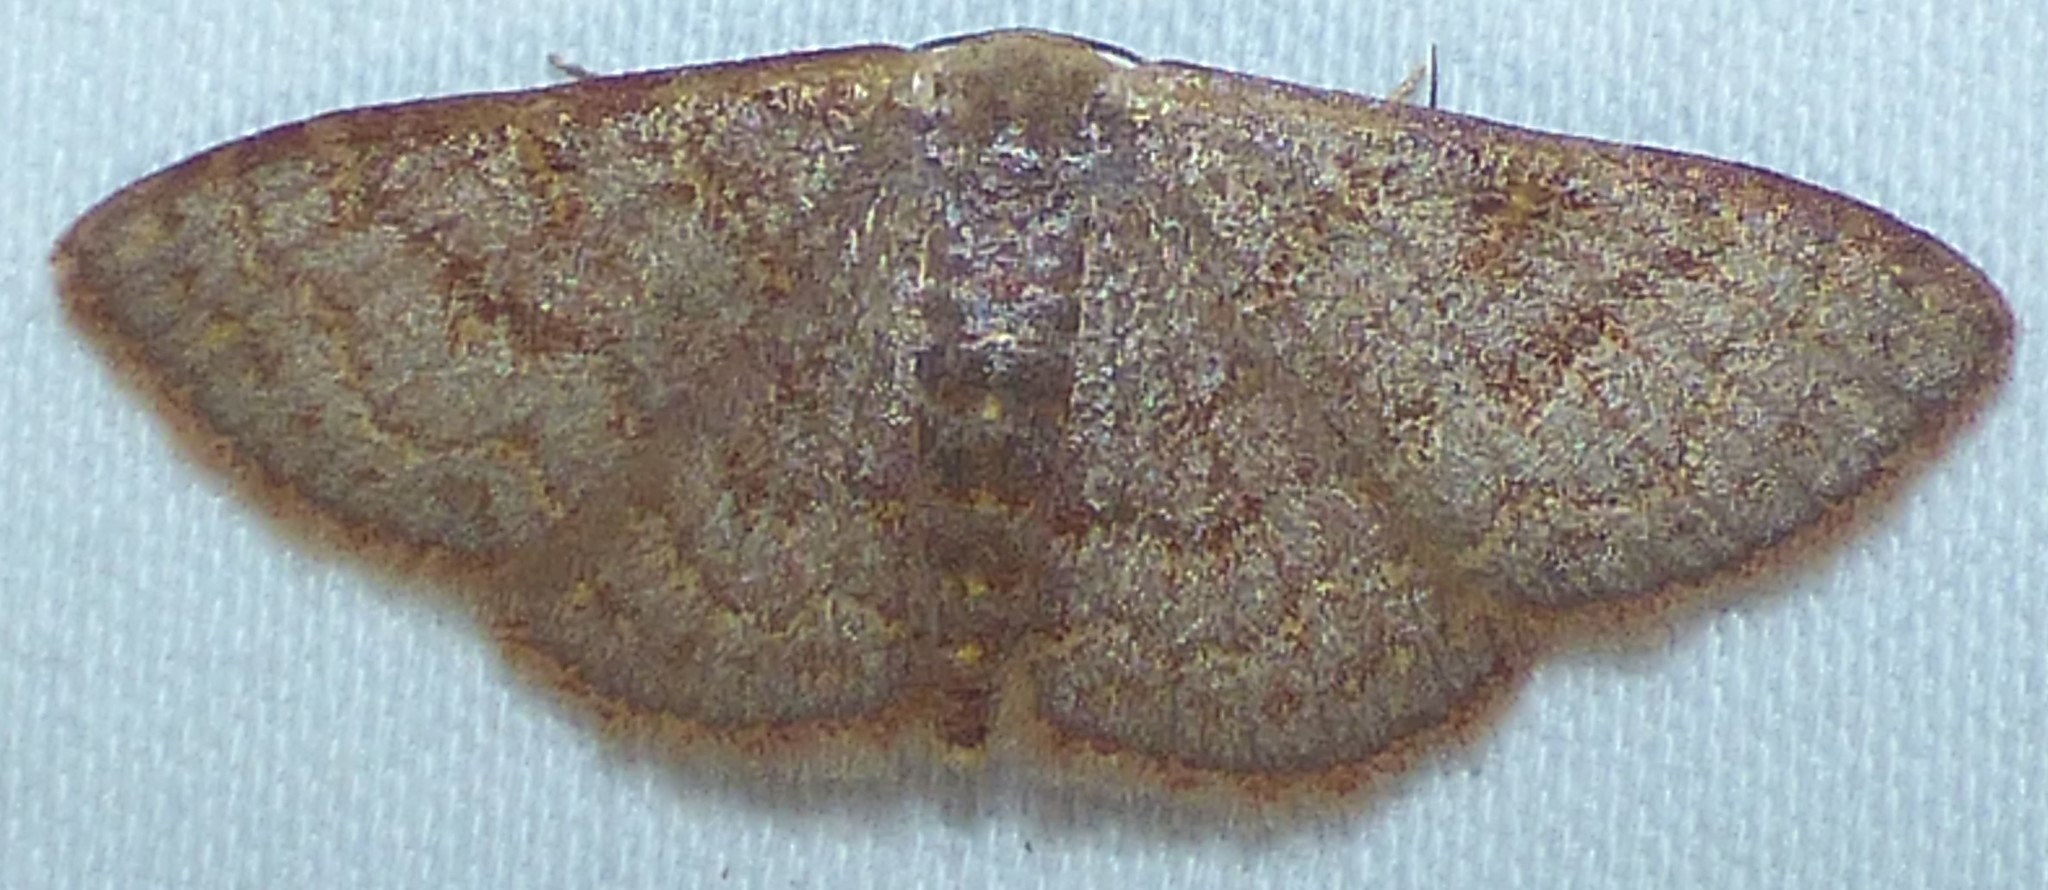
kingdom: Animalia
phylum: Arthropoda
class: Insecta
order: Lepidoptera
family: Geometridae
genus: Leptostales
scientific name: Leptostales pannaria
